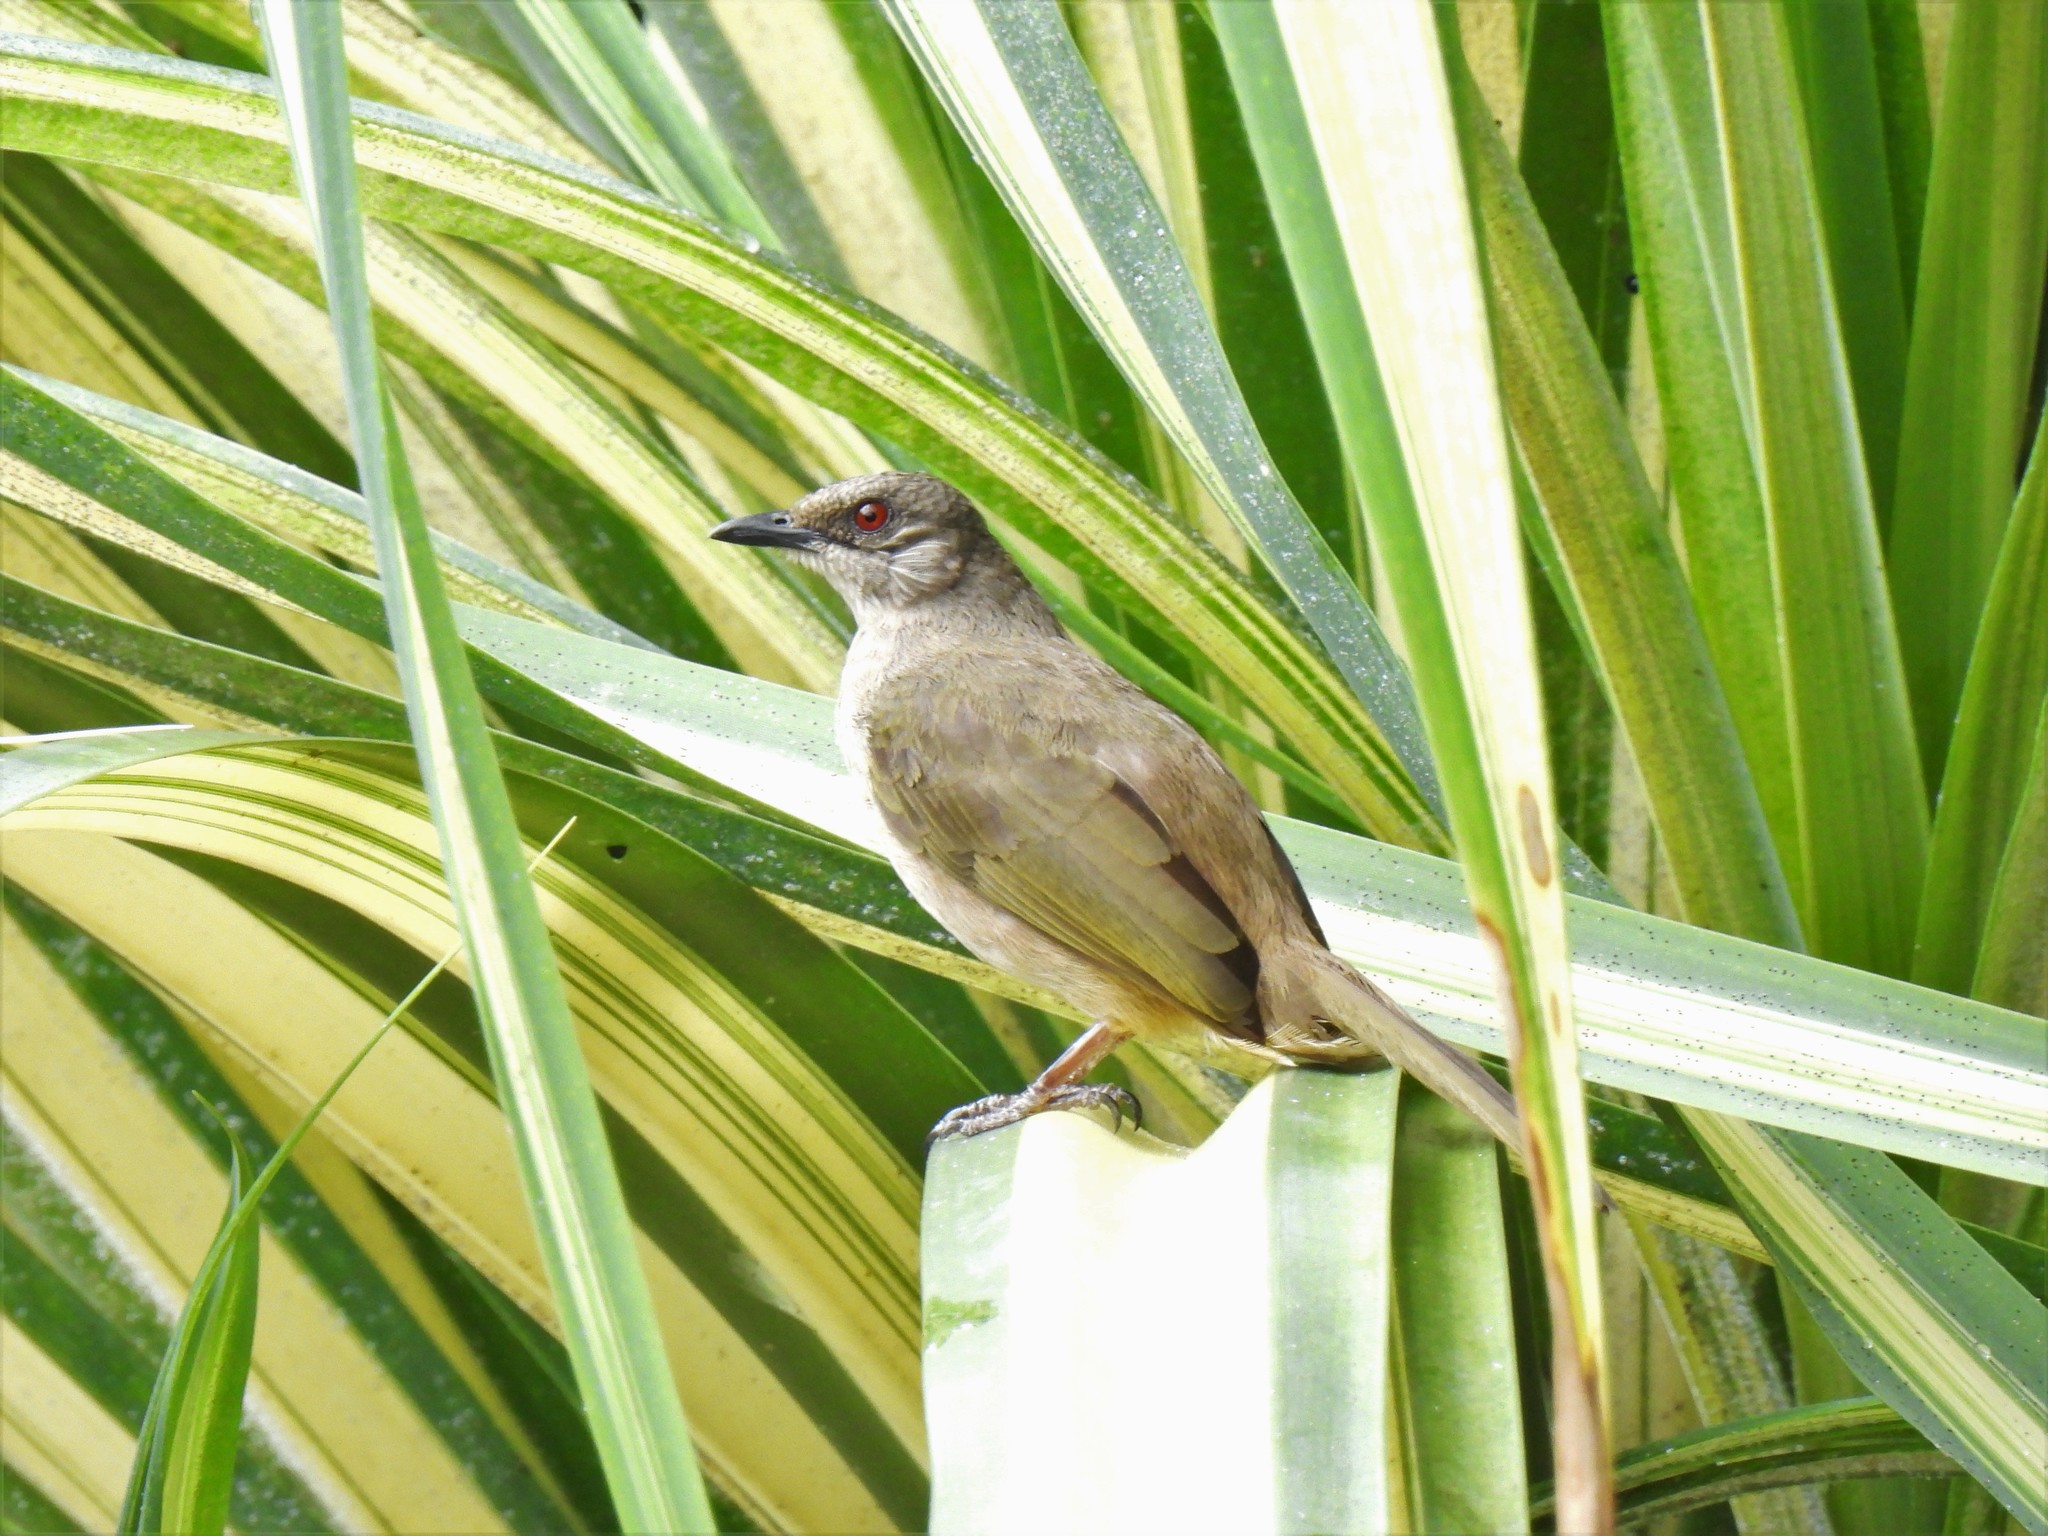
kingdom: Animalia
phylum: Chordata
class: Aves
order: Passeriformes
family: Pycnonotidae
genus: Pycnonotus
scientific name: Pycnonotus plumosus
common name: Olive-winged bulbul
